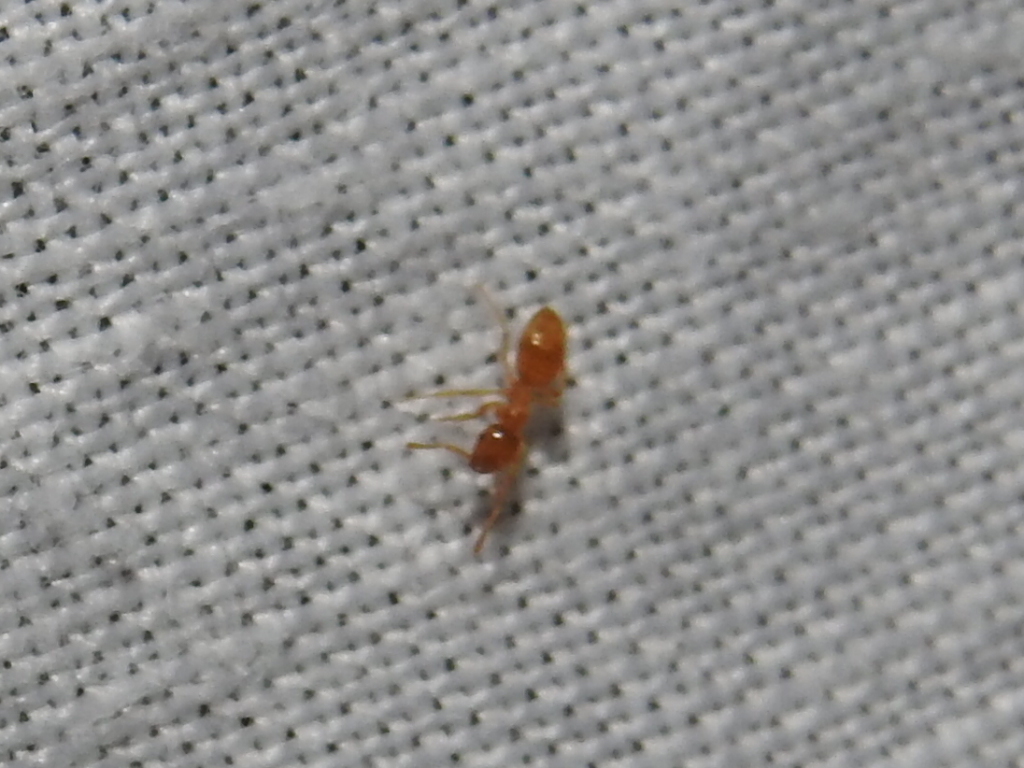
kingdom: Animalia
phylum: Arthropoda
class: Insecta
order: Hymenoptera
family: Formicidae
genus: Lasius
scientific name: Lasius flavus
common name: Blond field ant
